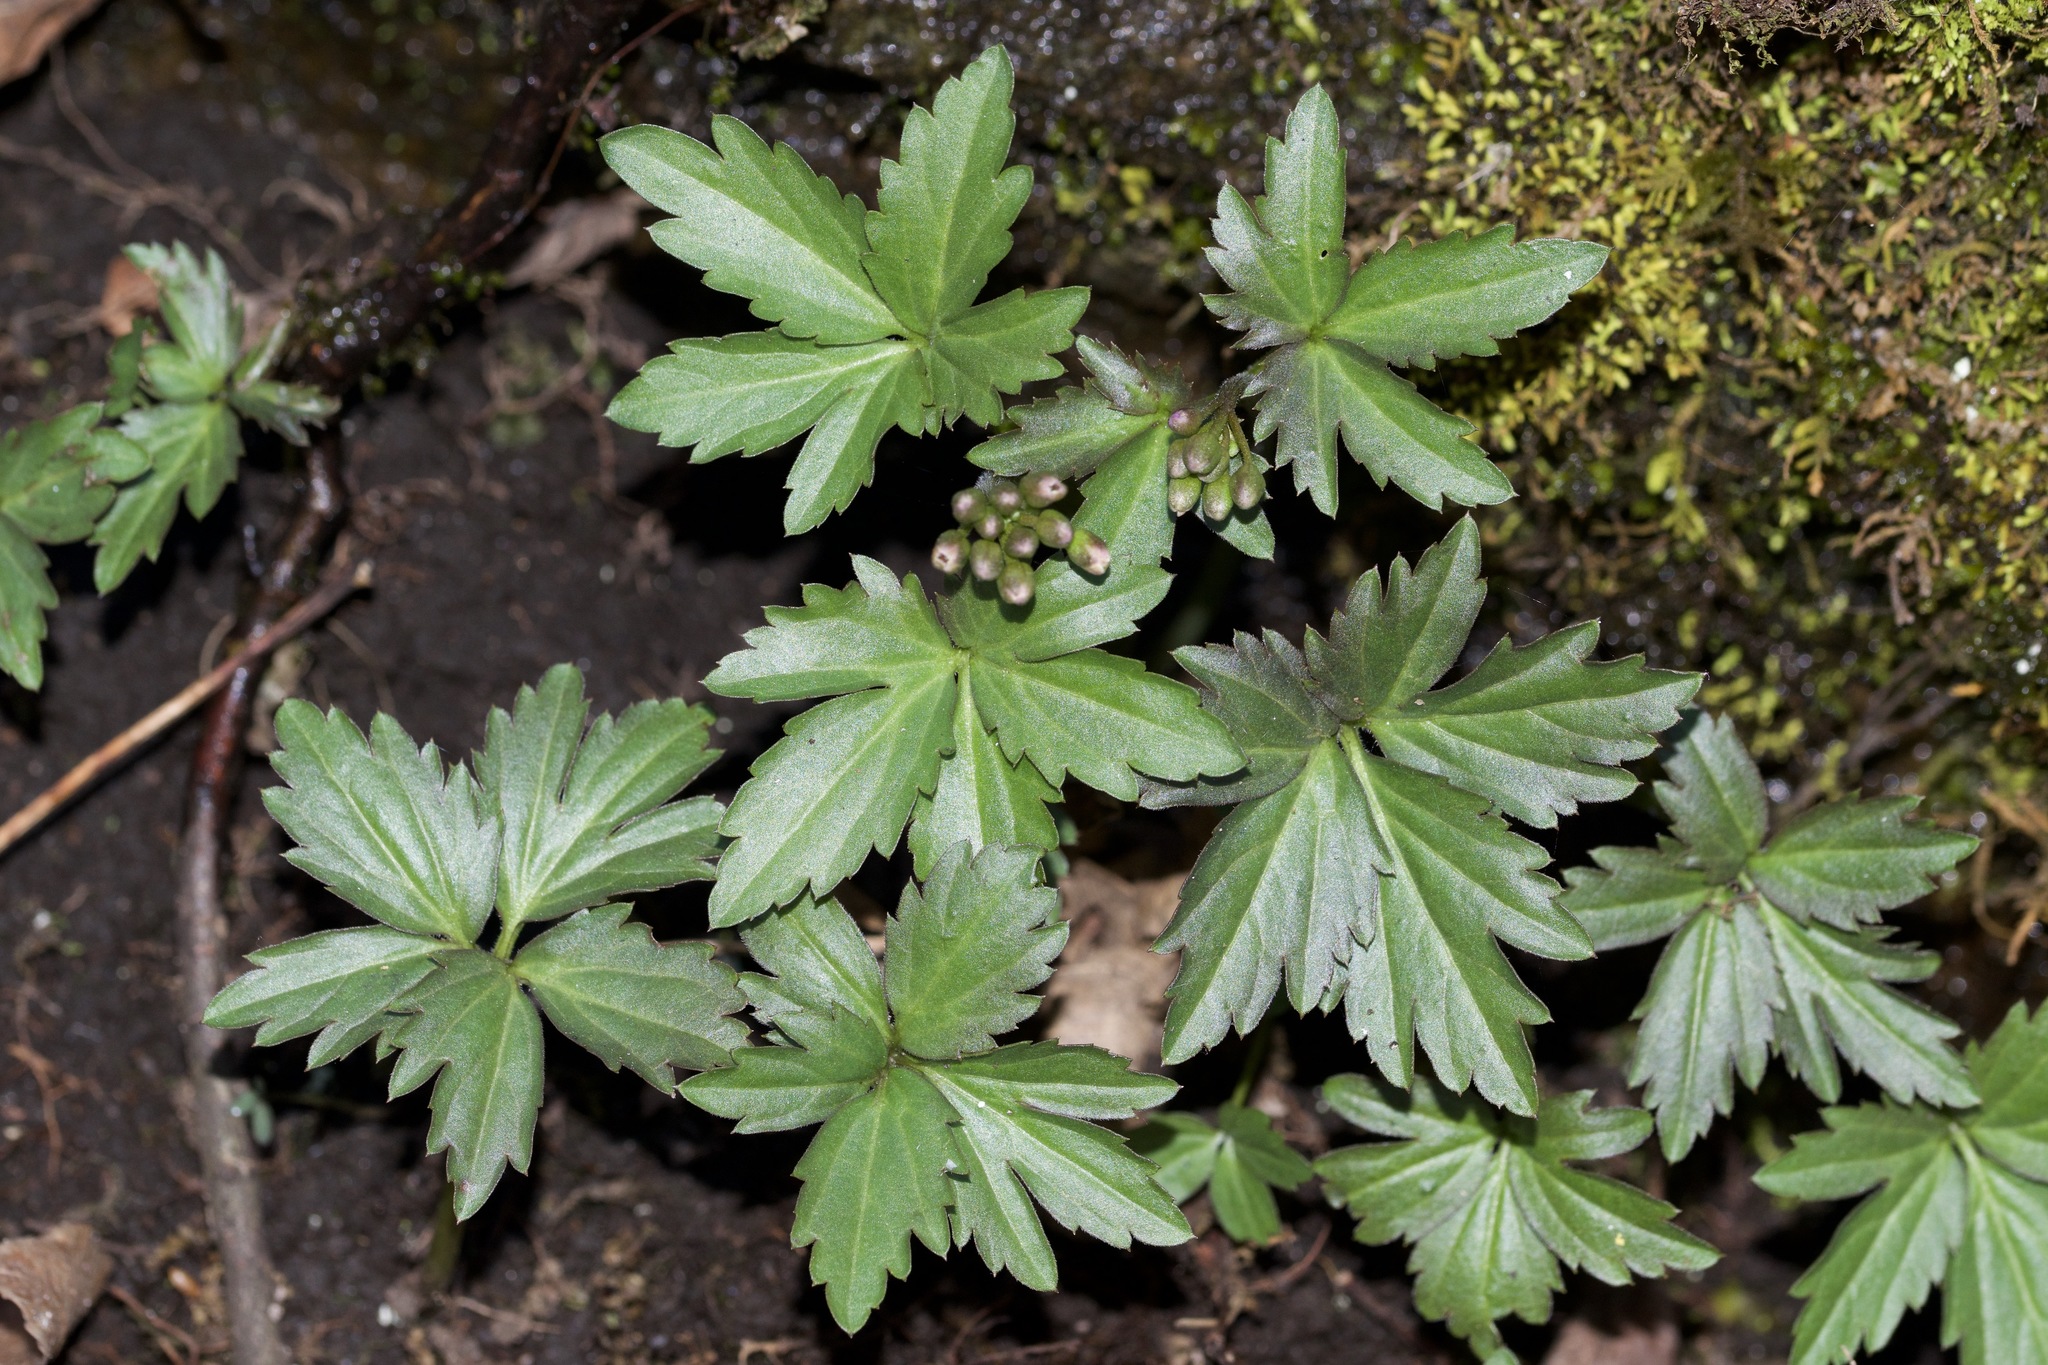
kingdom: Plantae
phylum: Tracheophyta
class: Magnoliopsida
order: Brassicales
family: Brassicaceae
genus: Cardamine
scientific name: Cardamine diphylla
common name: Broad-leaved toothwort
